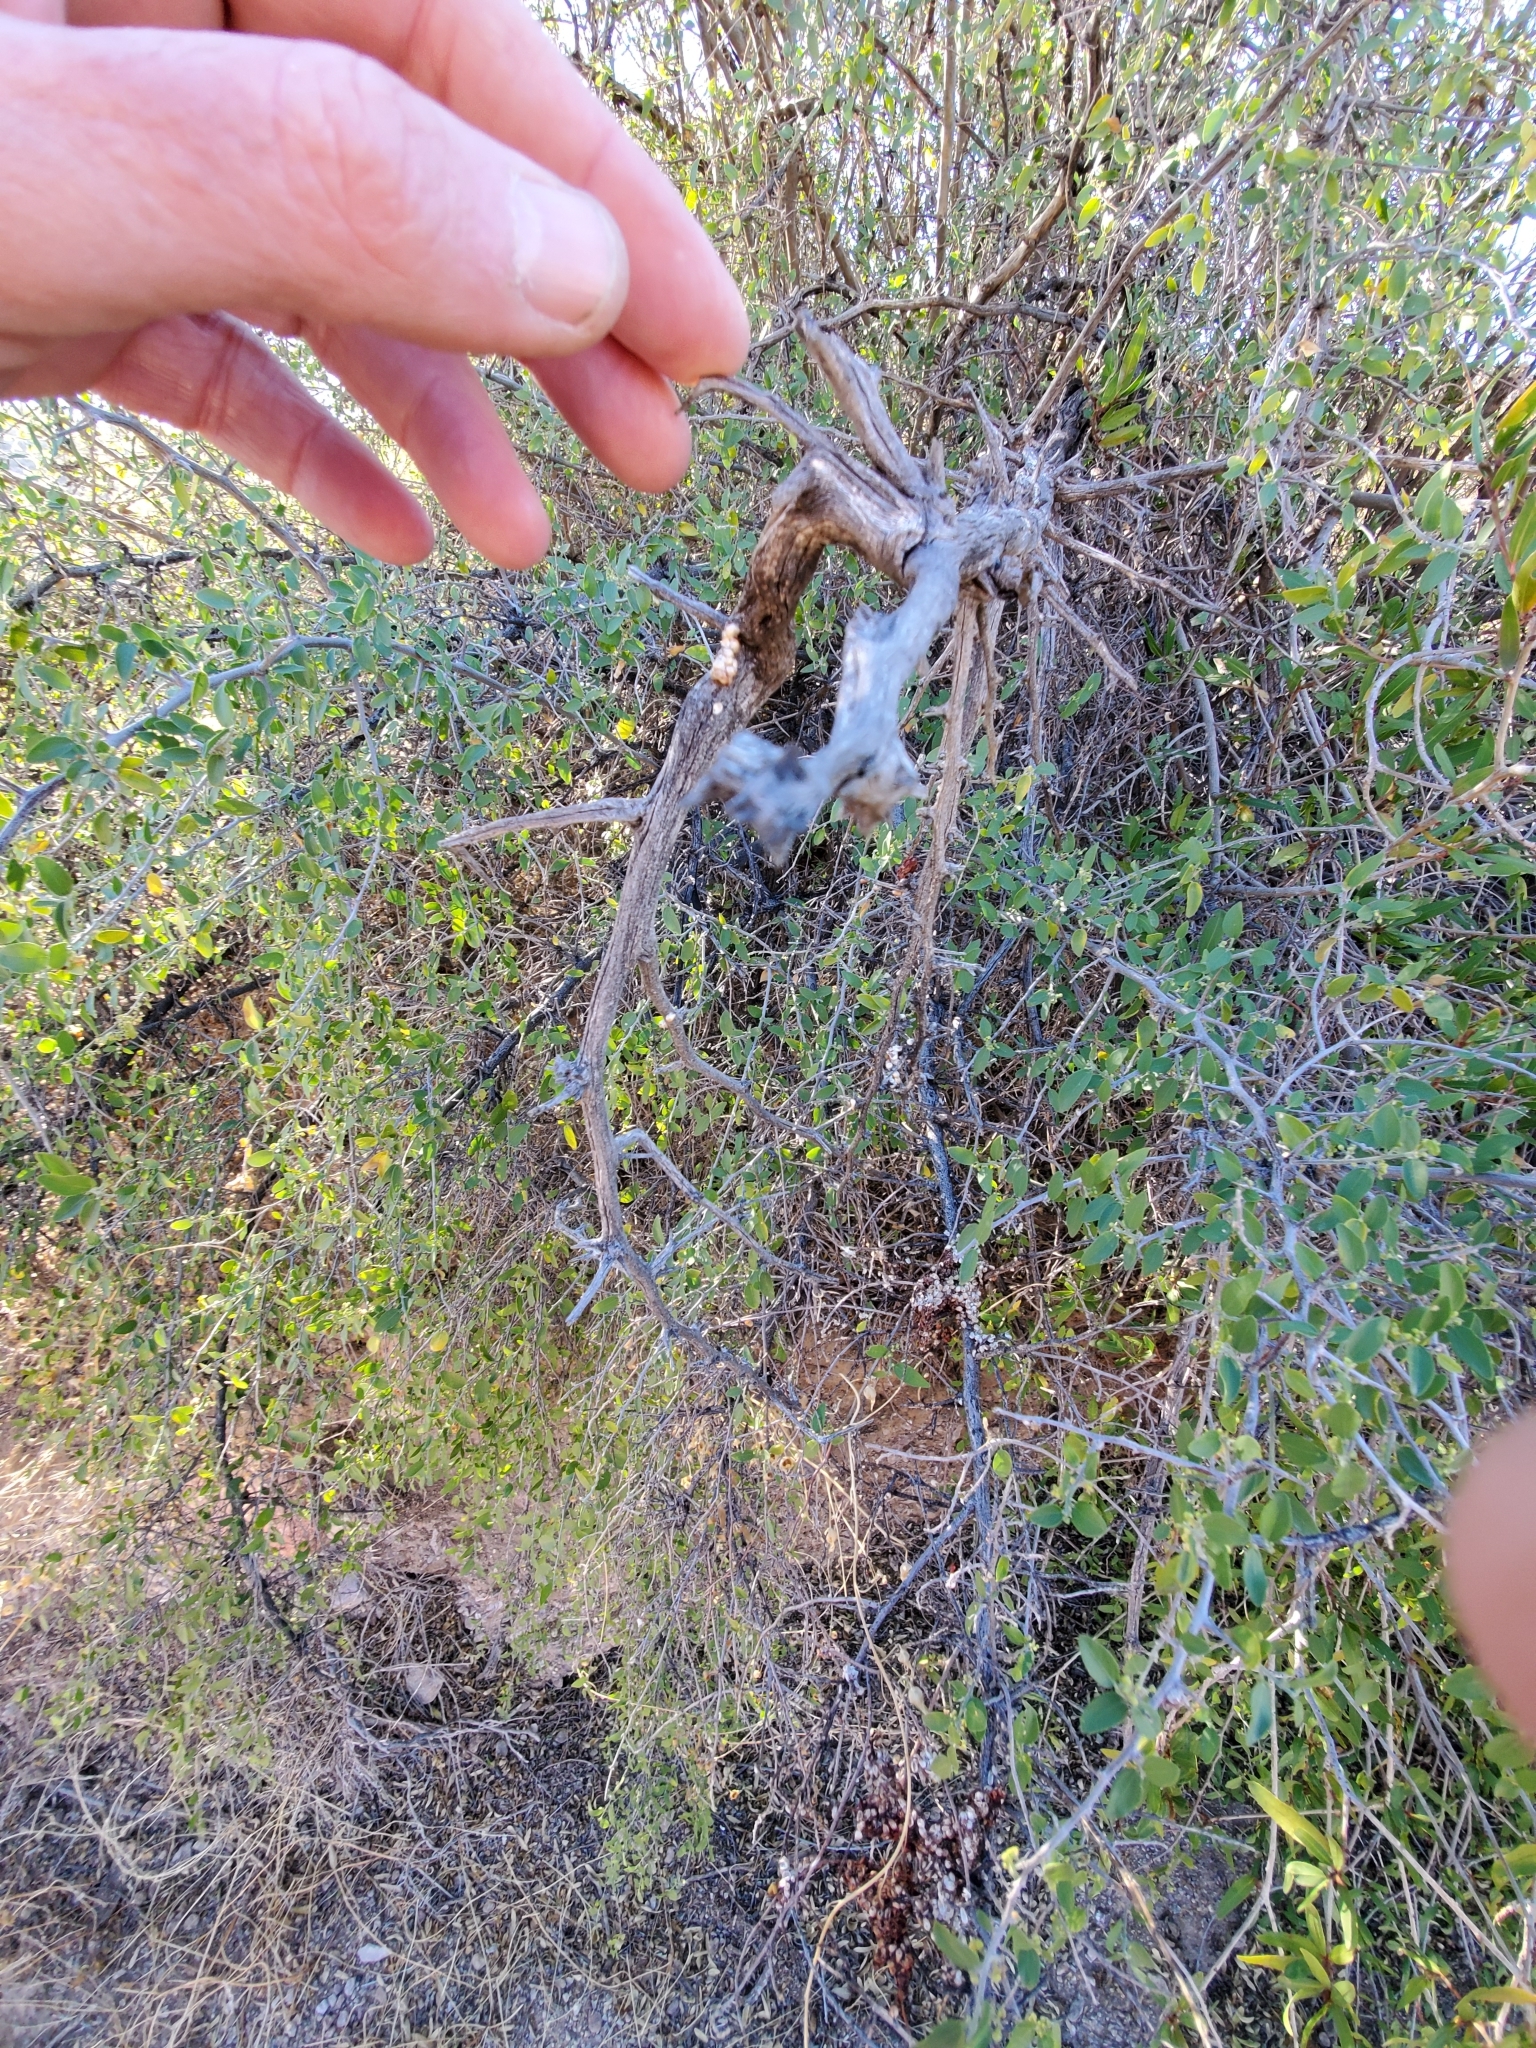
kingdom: Plantae
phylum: Tracheophyta
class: Magnoliopsida
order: Rosales
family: Cannabaceae
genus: Celtis
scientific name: Celtis pallida
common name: Desert hackberry
